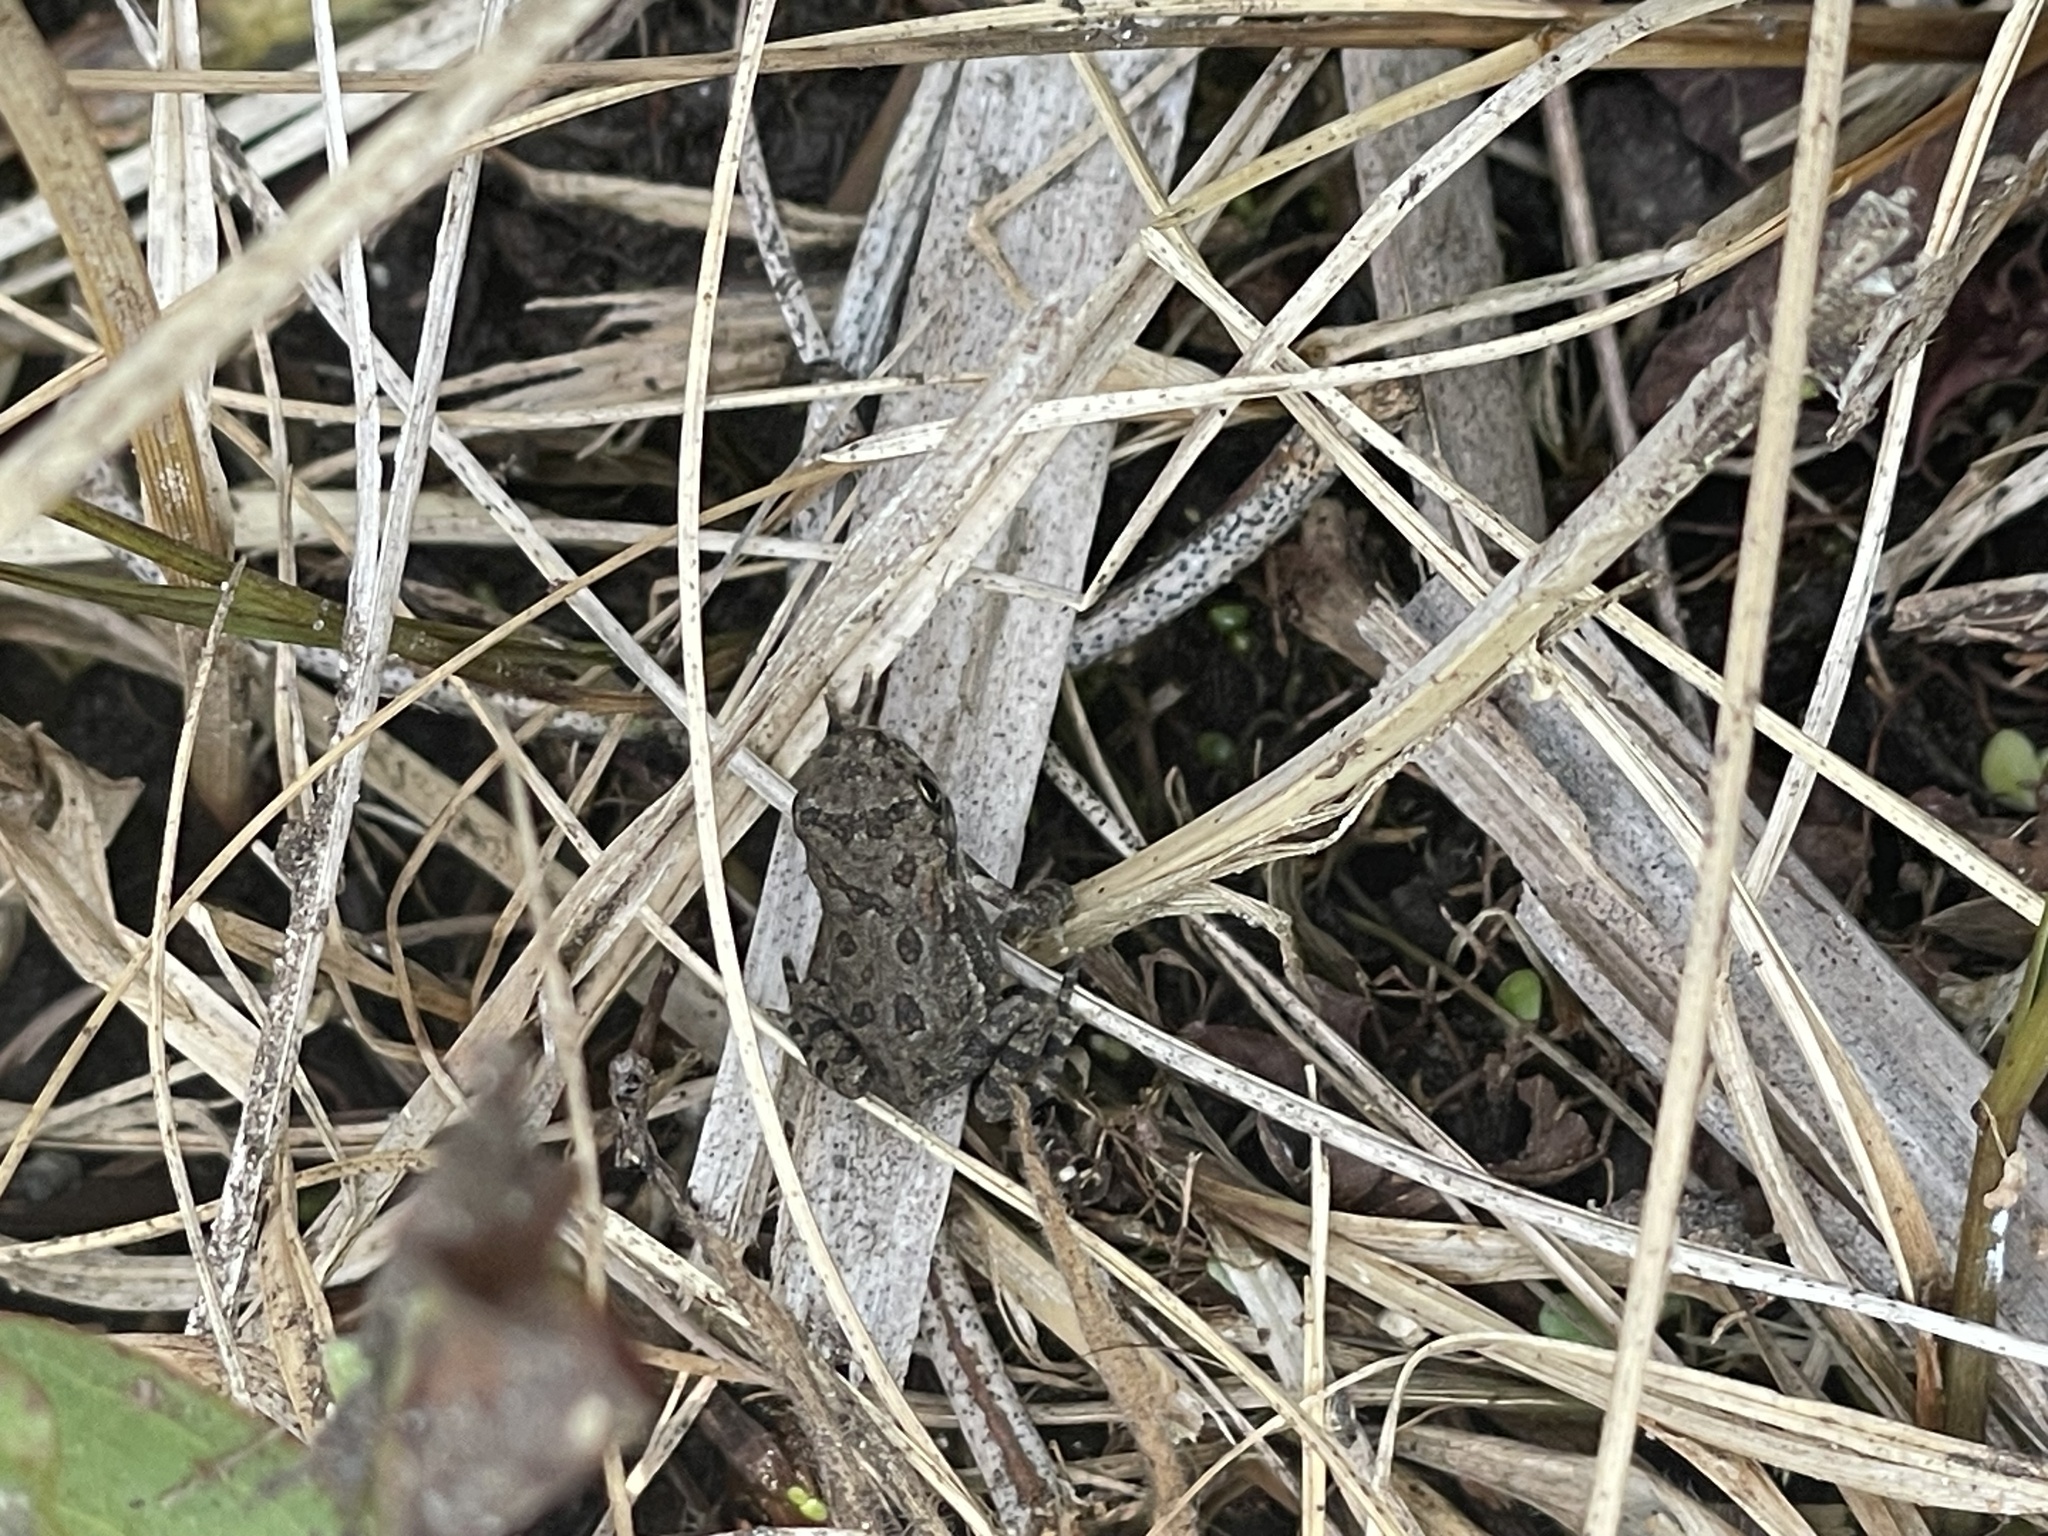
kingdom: Animalia
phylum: Chordata
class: Amphibia
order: Anura
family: Bufonidae
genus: Anaxyrus
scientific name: Anaxyrus fowleri
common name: Fowler's toad
